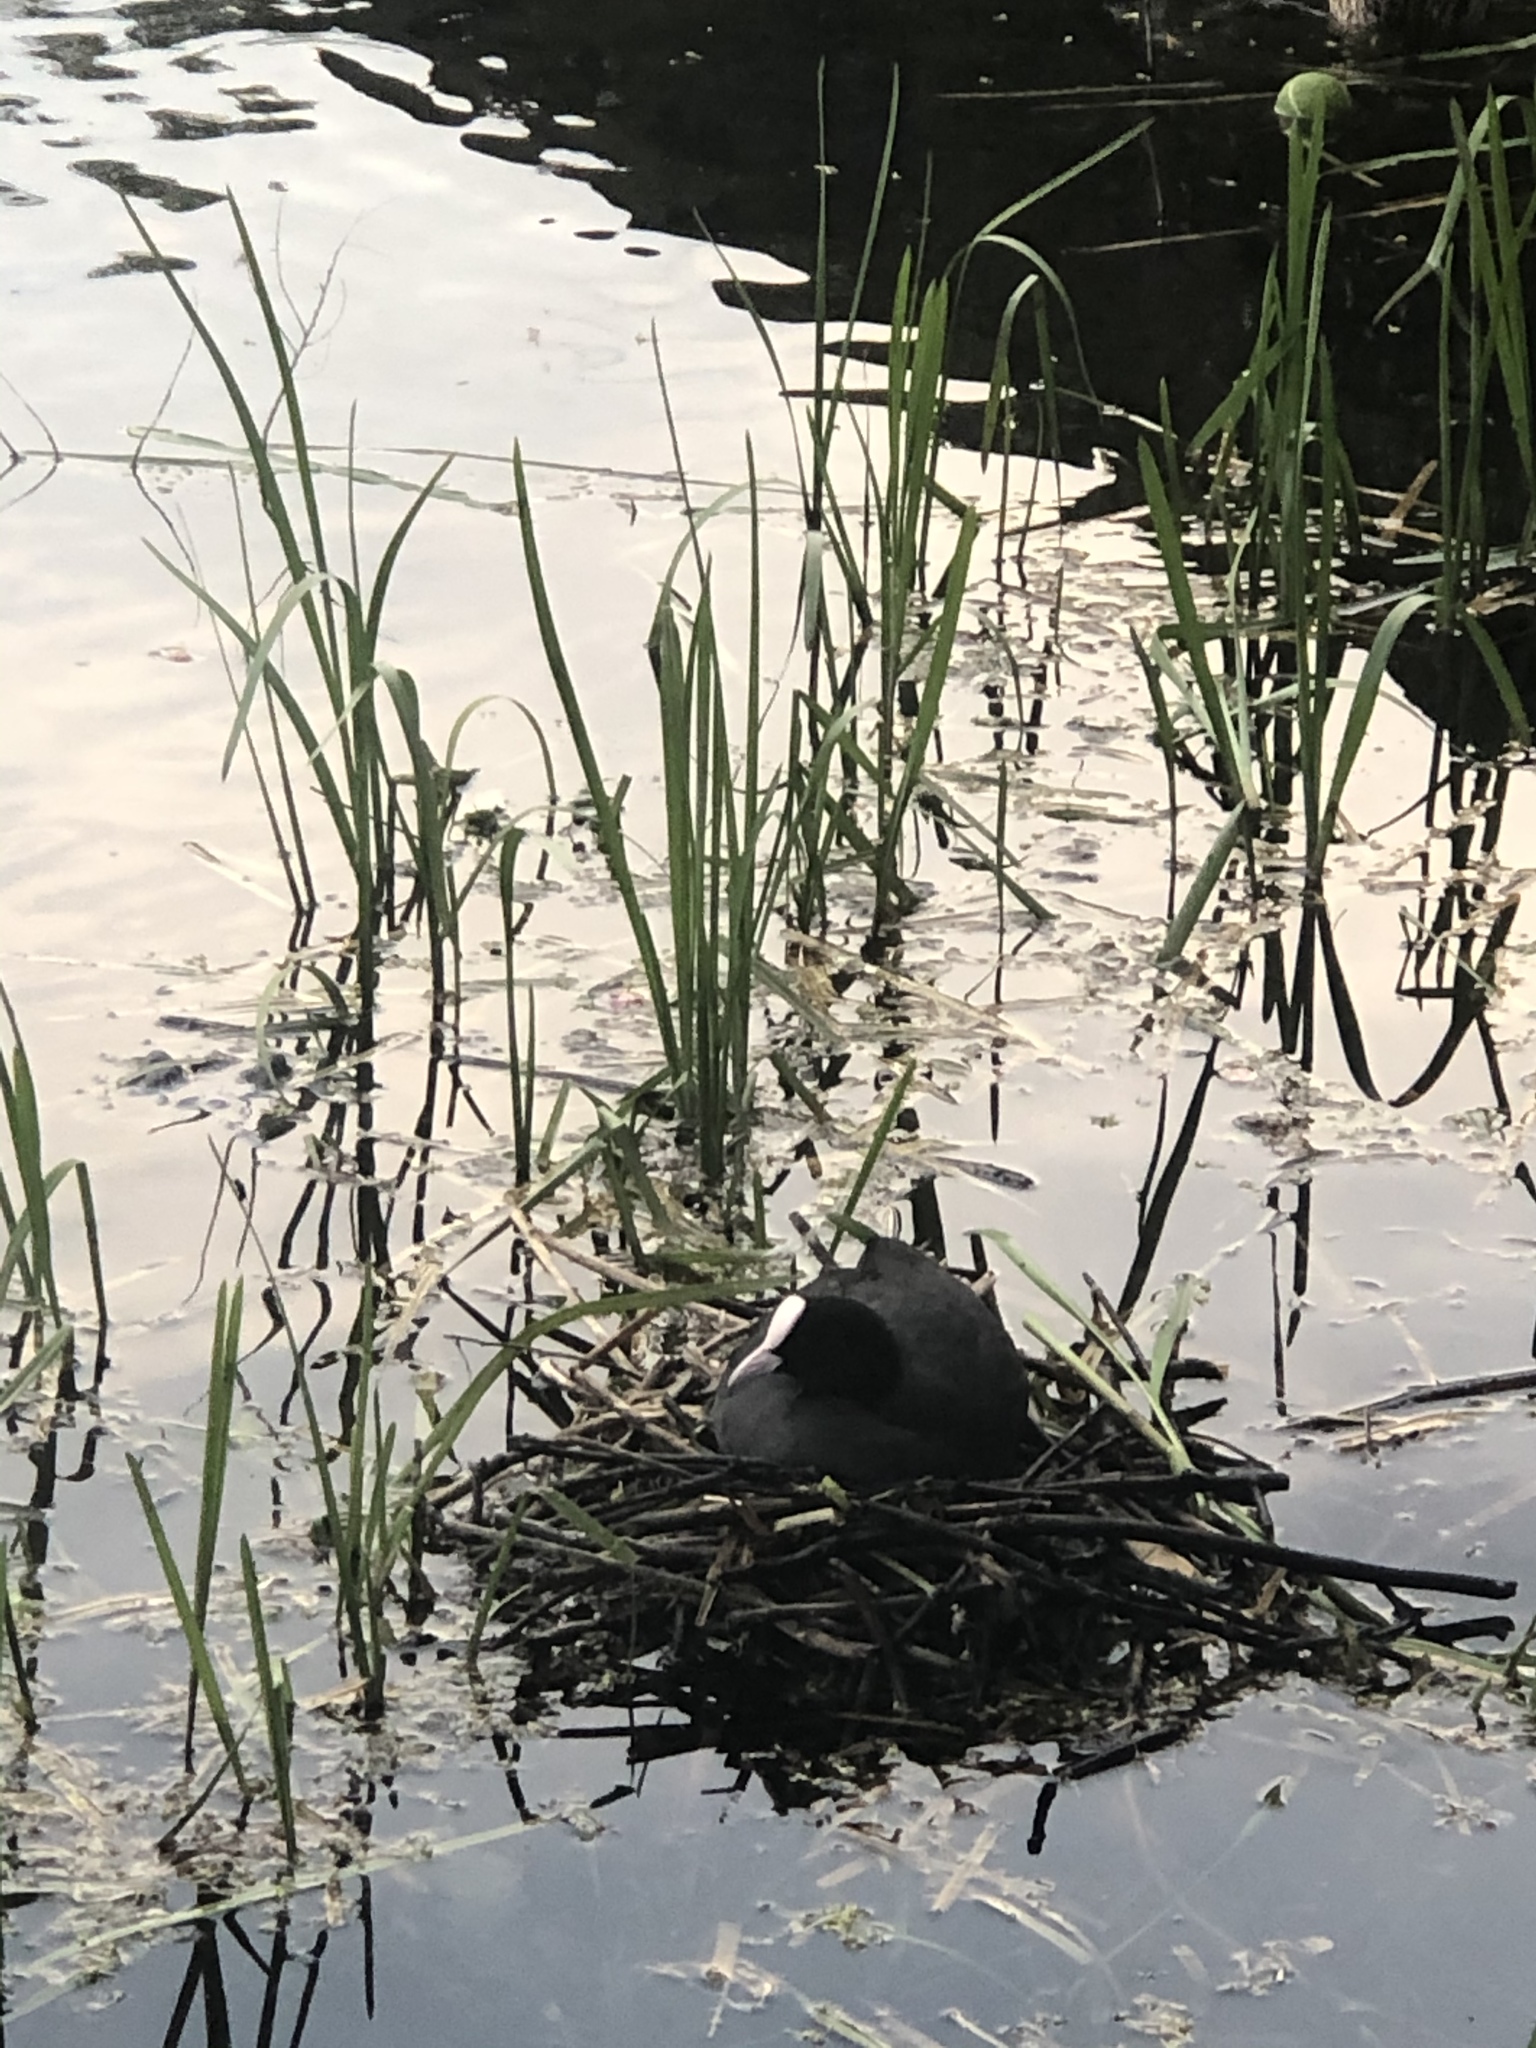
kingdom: Animalia
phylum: Chordata
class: Aves
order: Gruiformes
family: Rallidae
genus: Fulica
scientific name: Fulica atra
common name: Eurasian coot
